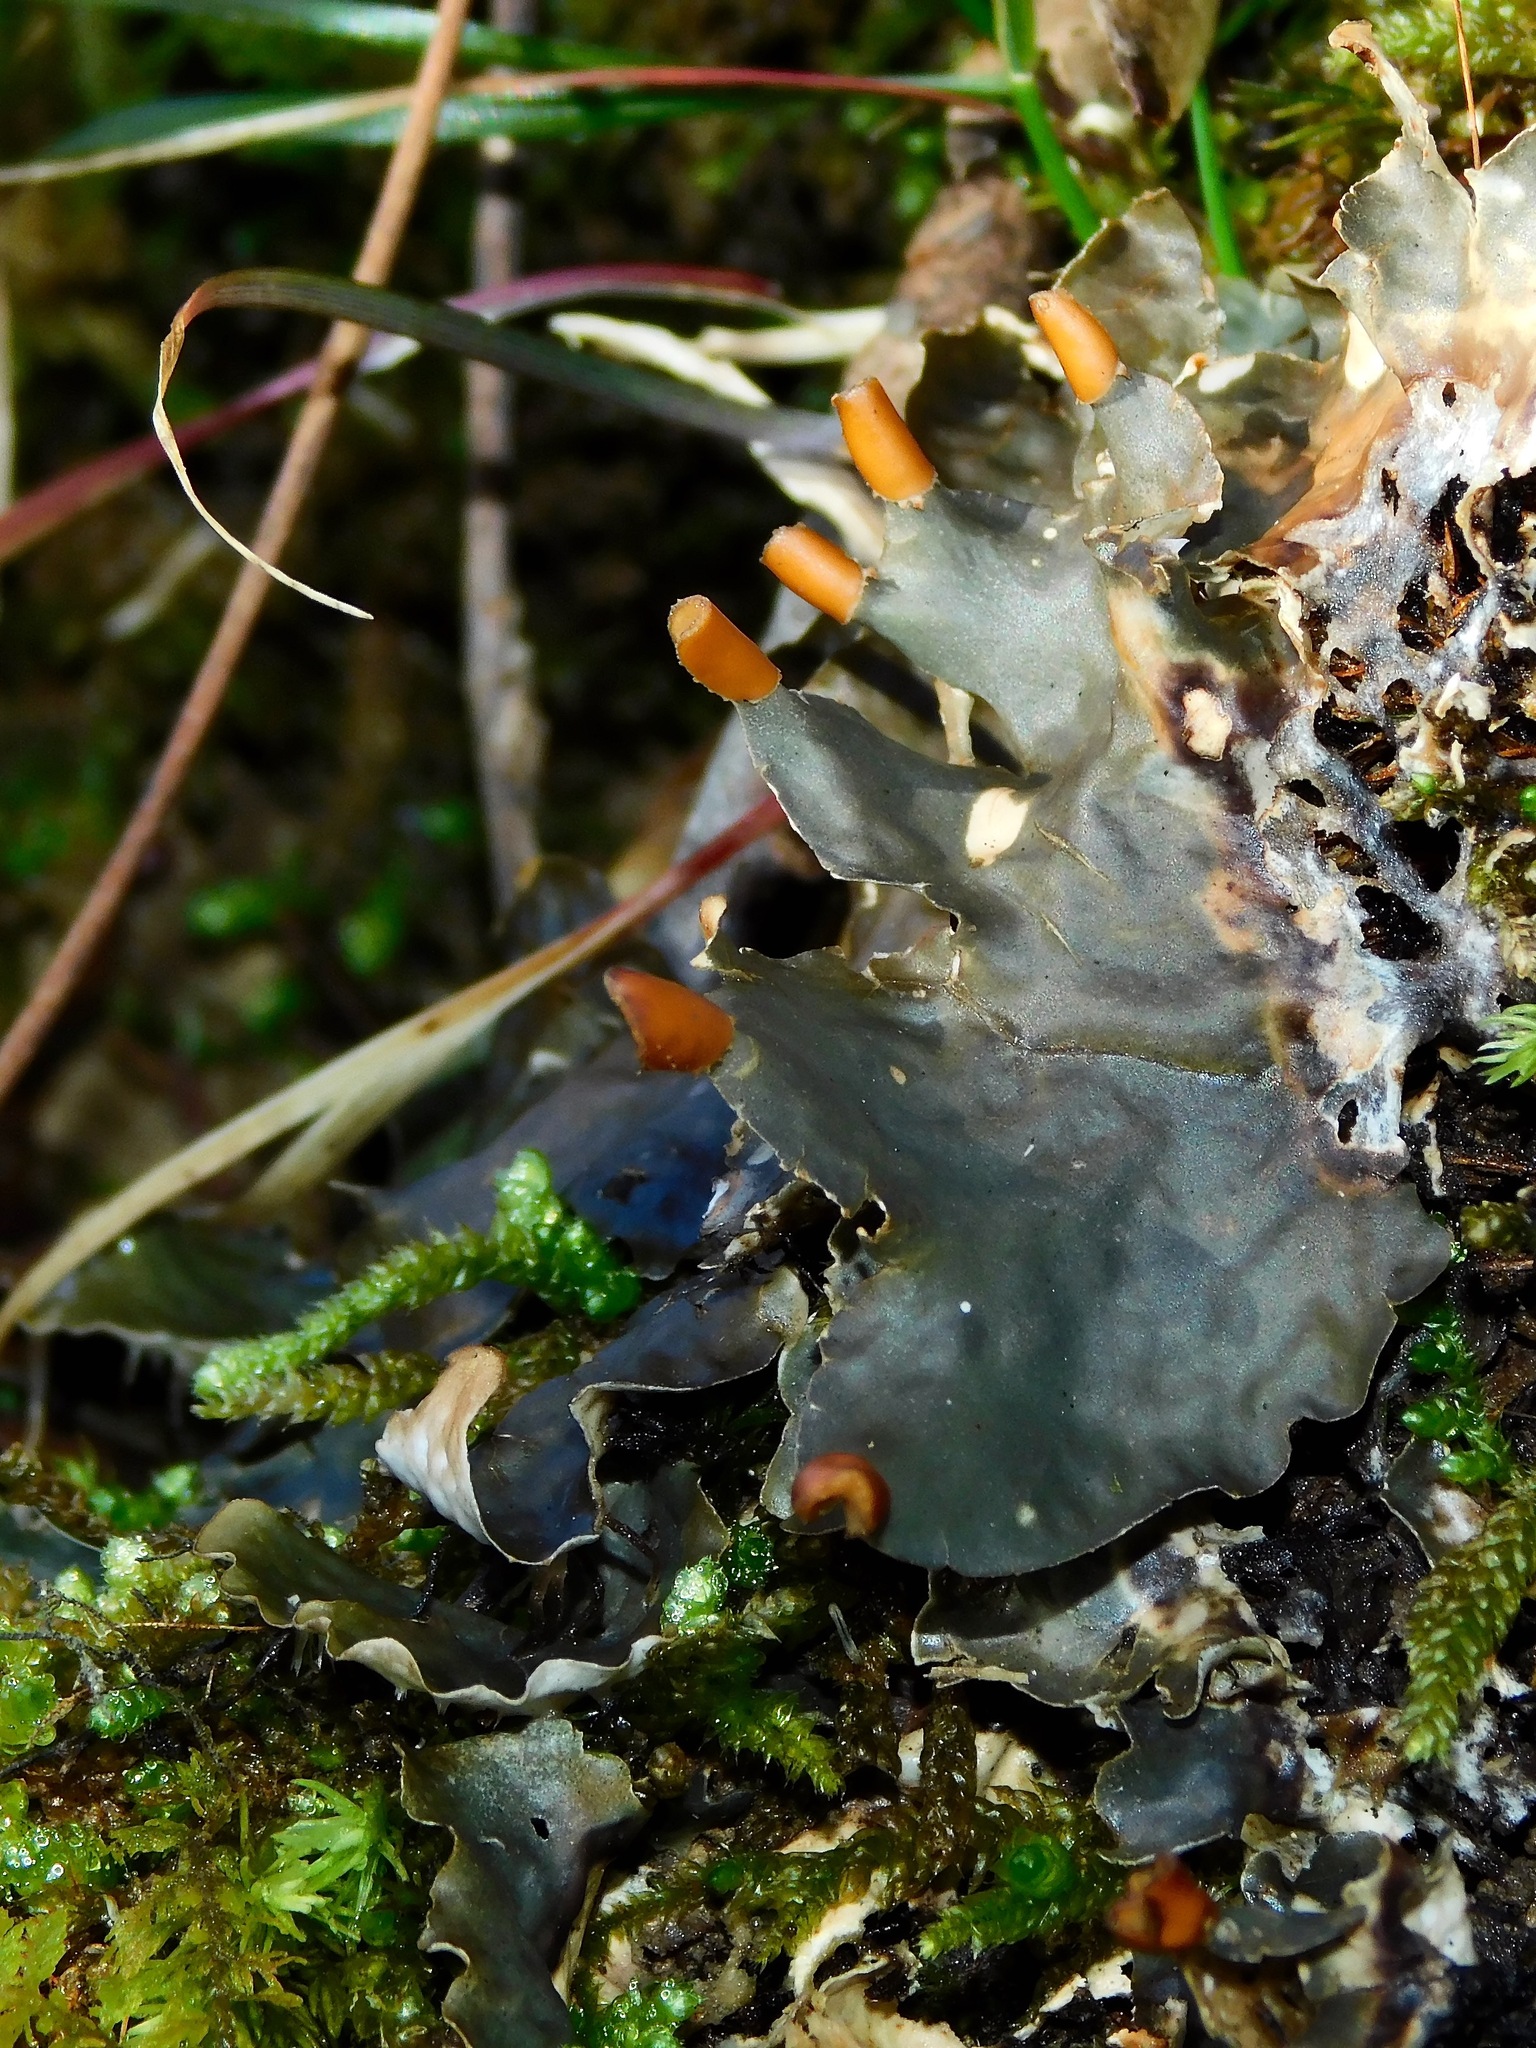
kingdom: Fungi
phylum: Ascomycota
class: Lecanoromycetes
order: Peltigerales
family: Peltigeraceae
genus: Peltigera
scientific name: Peltigera neopolydactyla
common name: Carpet pelt
